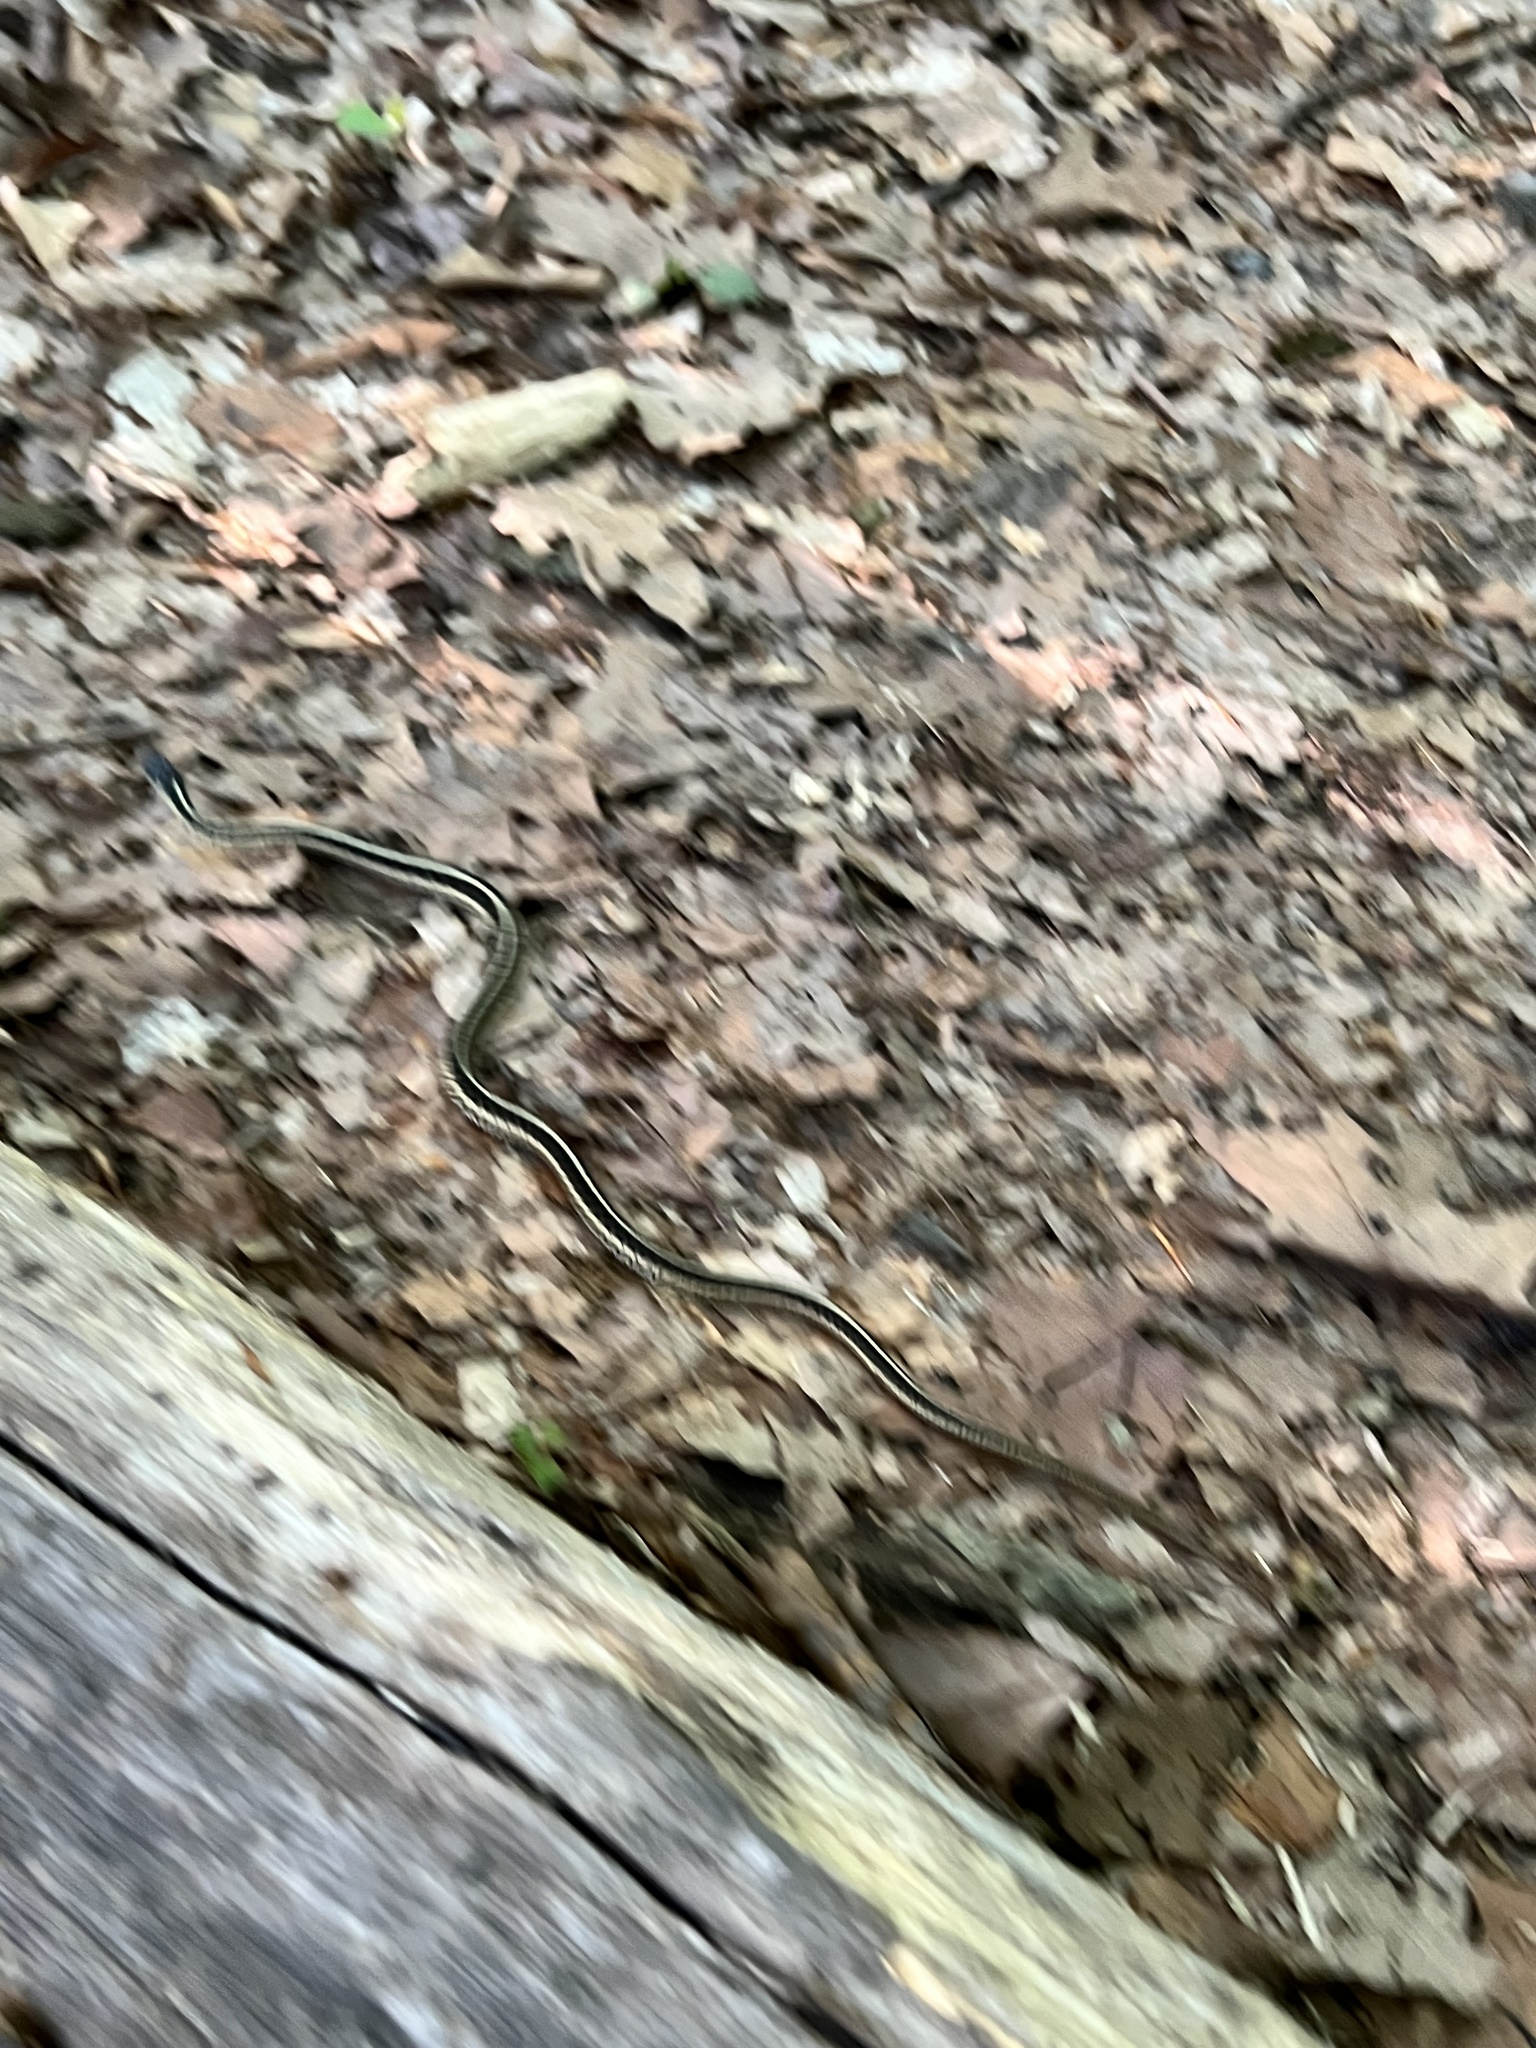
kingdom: Animalia
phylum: Chordata
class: Squamata
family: Colubridae
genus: Thamnophis
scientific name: Thamnophis sirtalis
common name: Common garter snake
